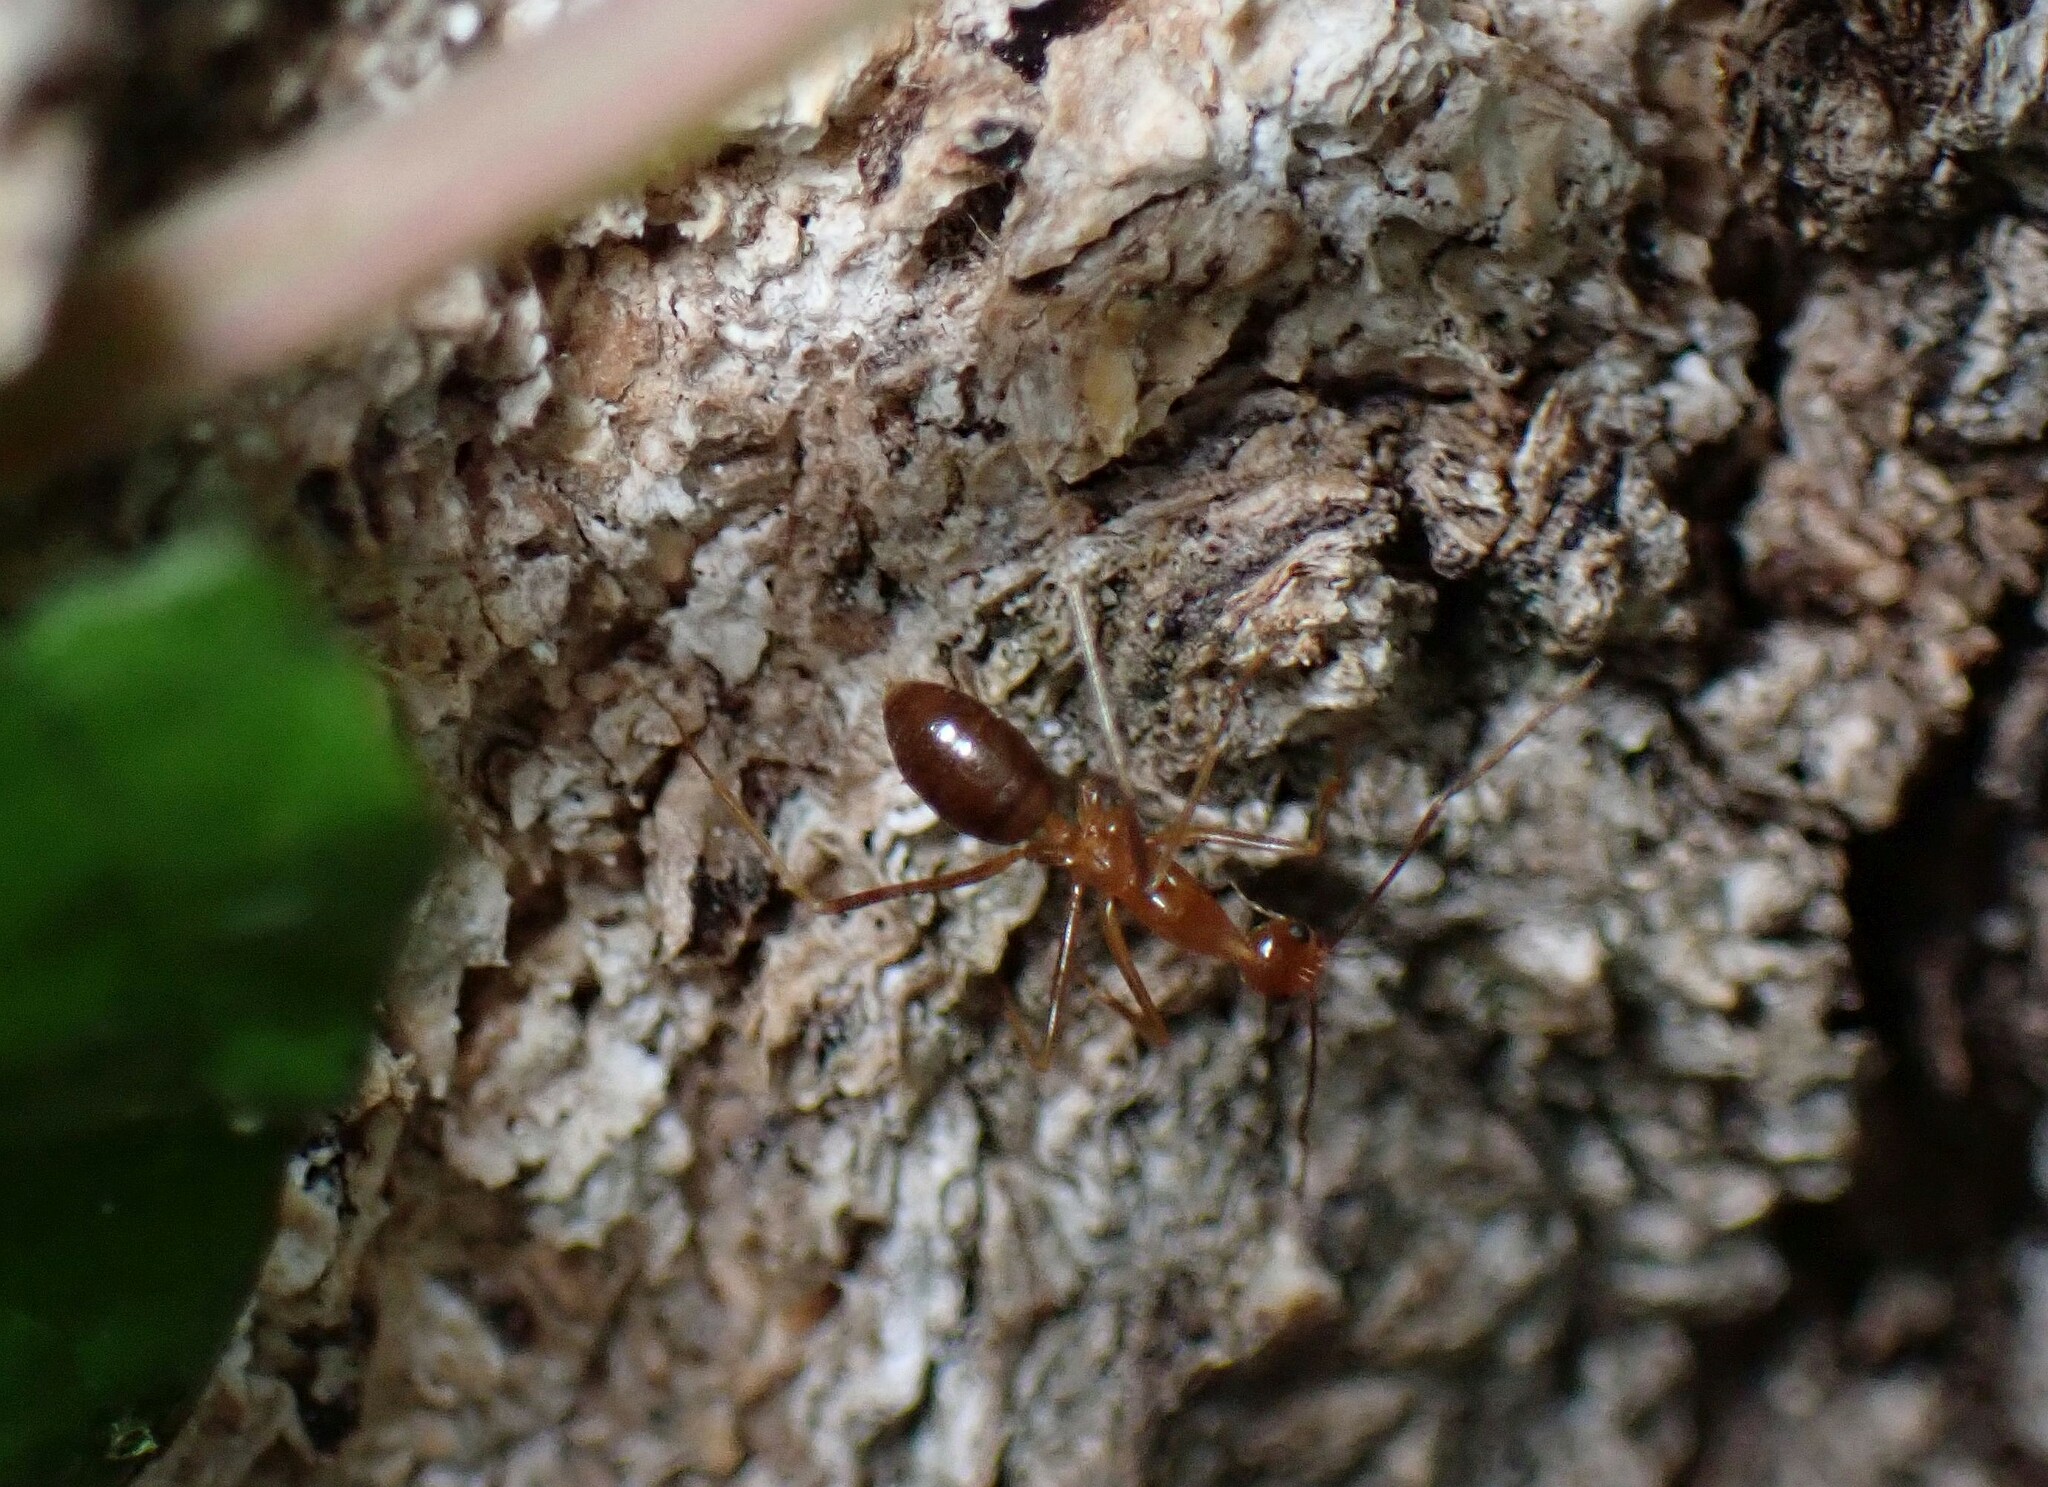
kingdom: Animalia
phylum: Arthropoda
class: Insecta
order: Hymenoptera
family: Formicidae
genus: Anoplolepis
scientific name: Anoplolepis gracilipes
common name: Ant
